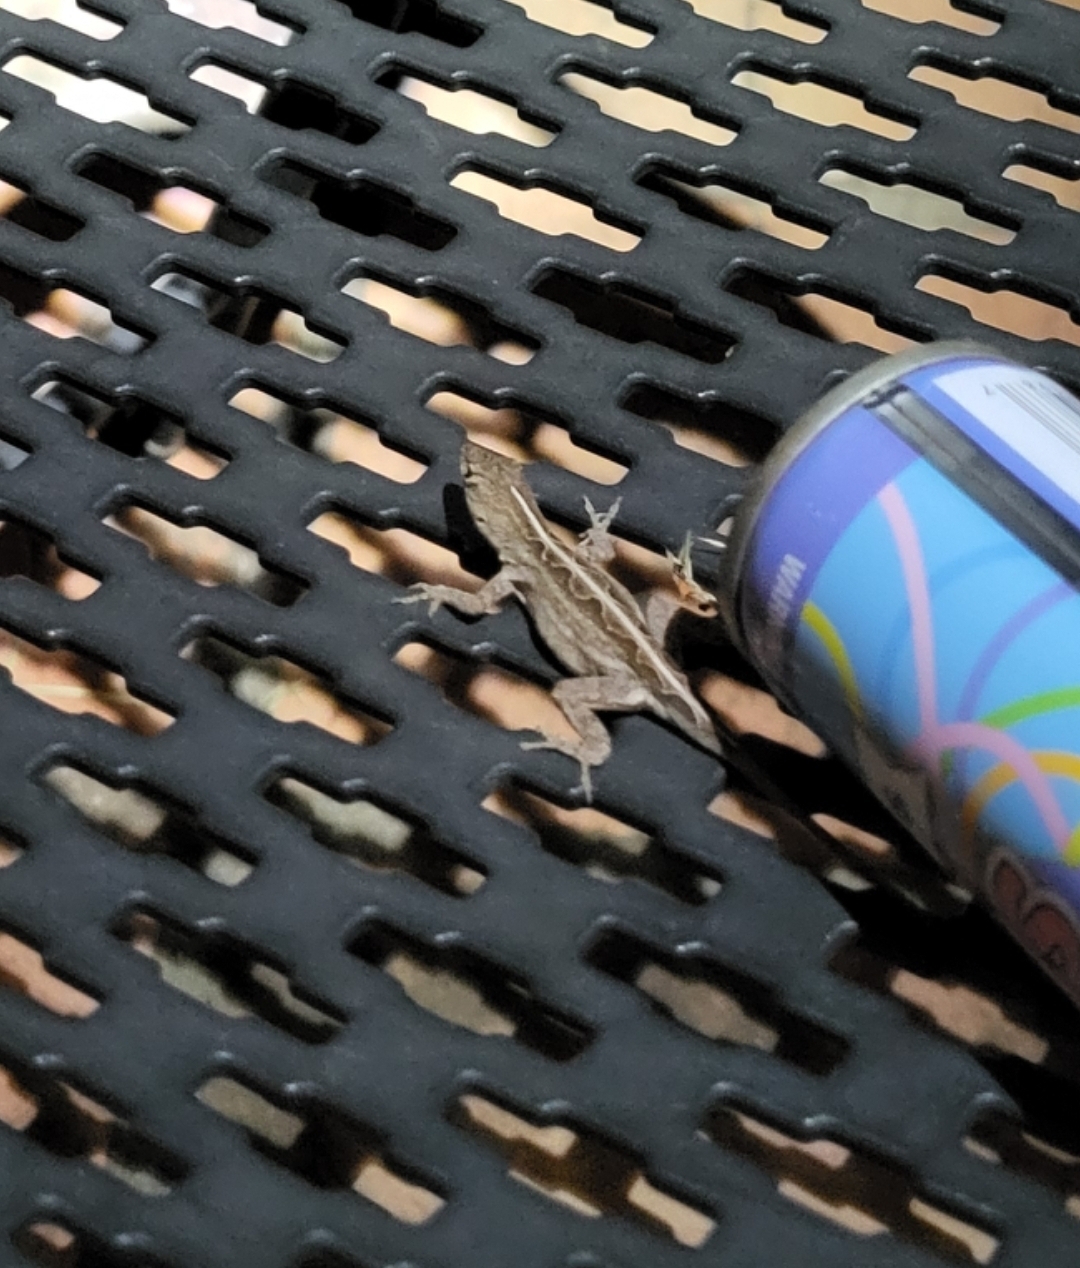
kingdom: Animalia
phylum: Chordata
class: Squamata
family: Dactyloidae
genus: Anolis
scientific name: Anolis sagrei
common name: Brown anole
